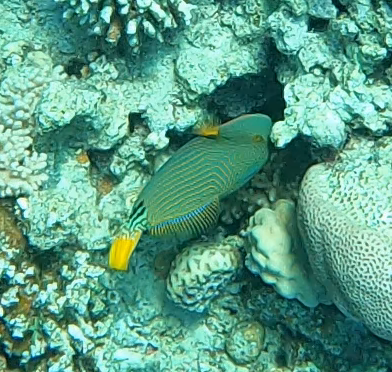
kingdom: Animalia
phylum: Chordata
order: Tetraodontiformes
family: Balistidae
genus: Balistapus
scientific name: Balistapus undulatus
